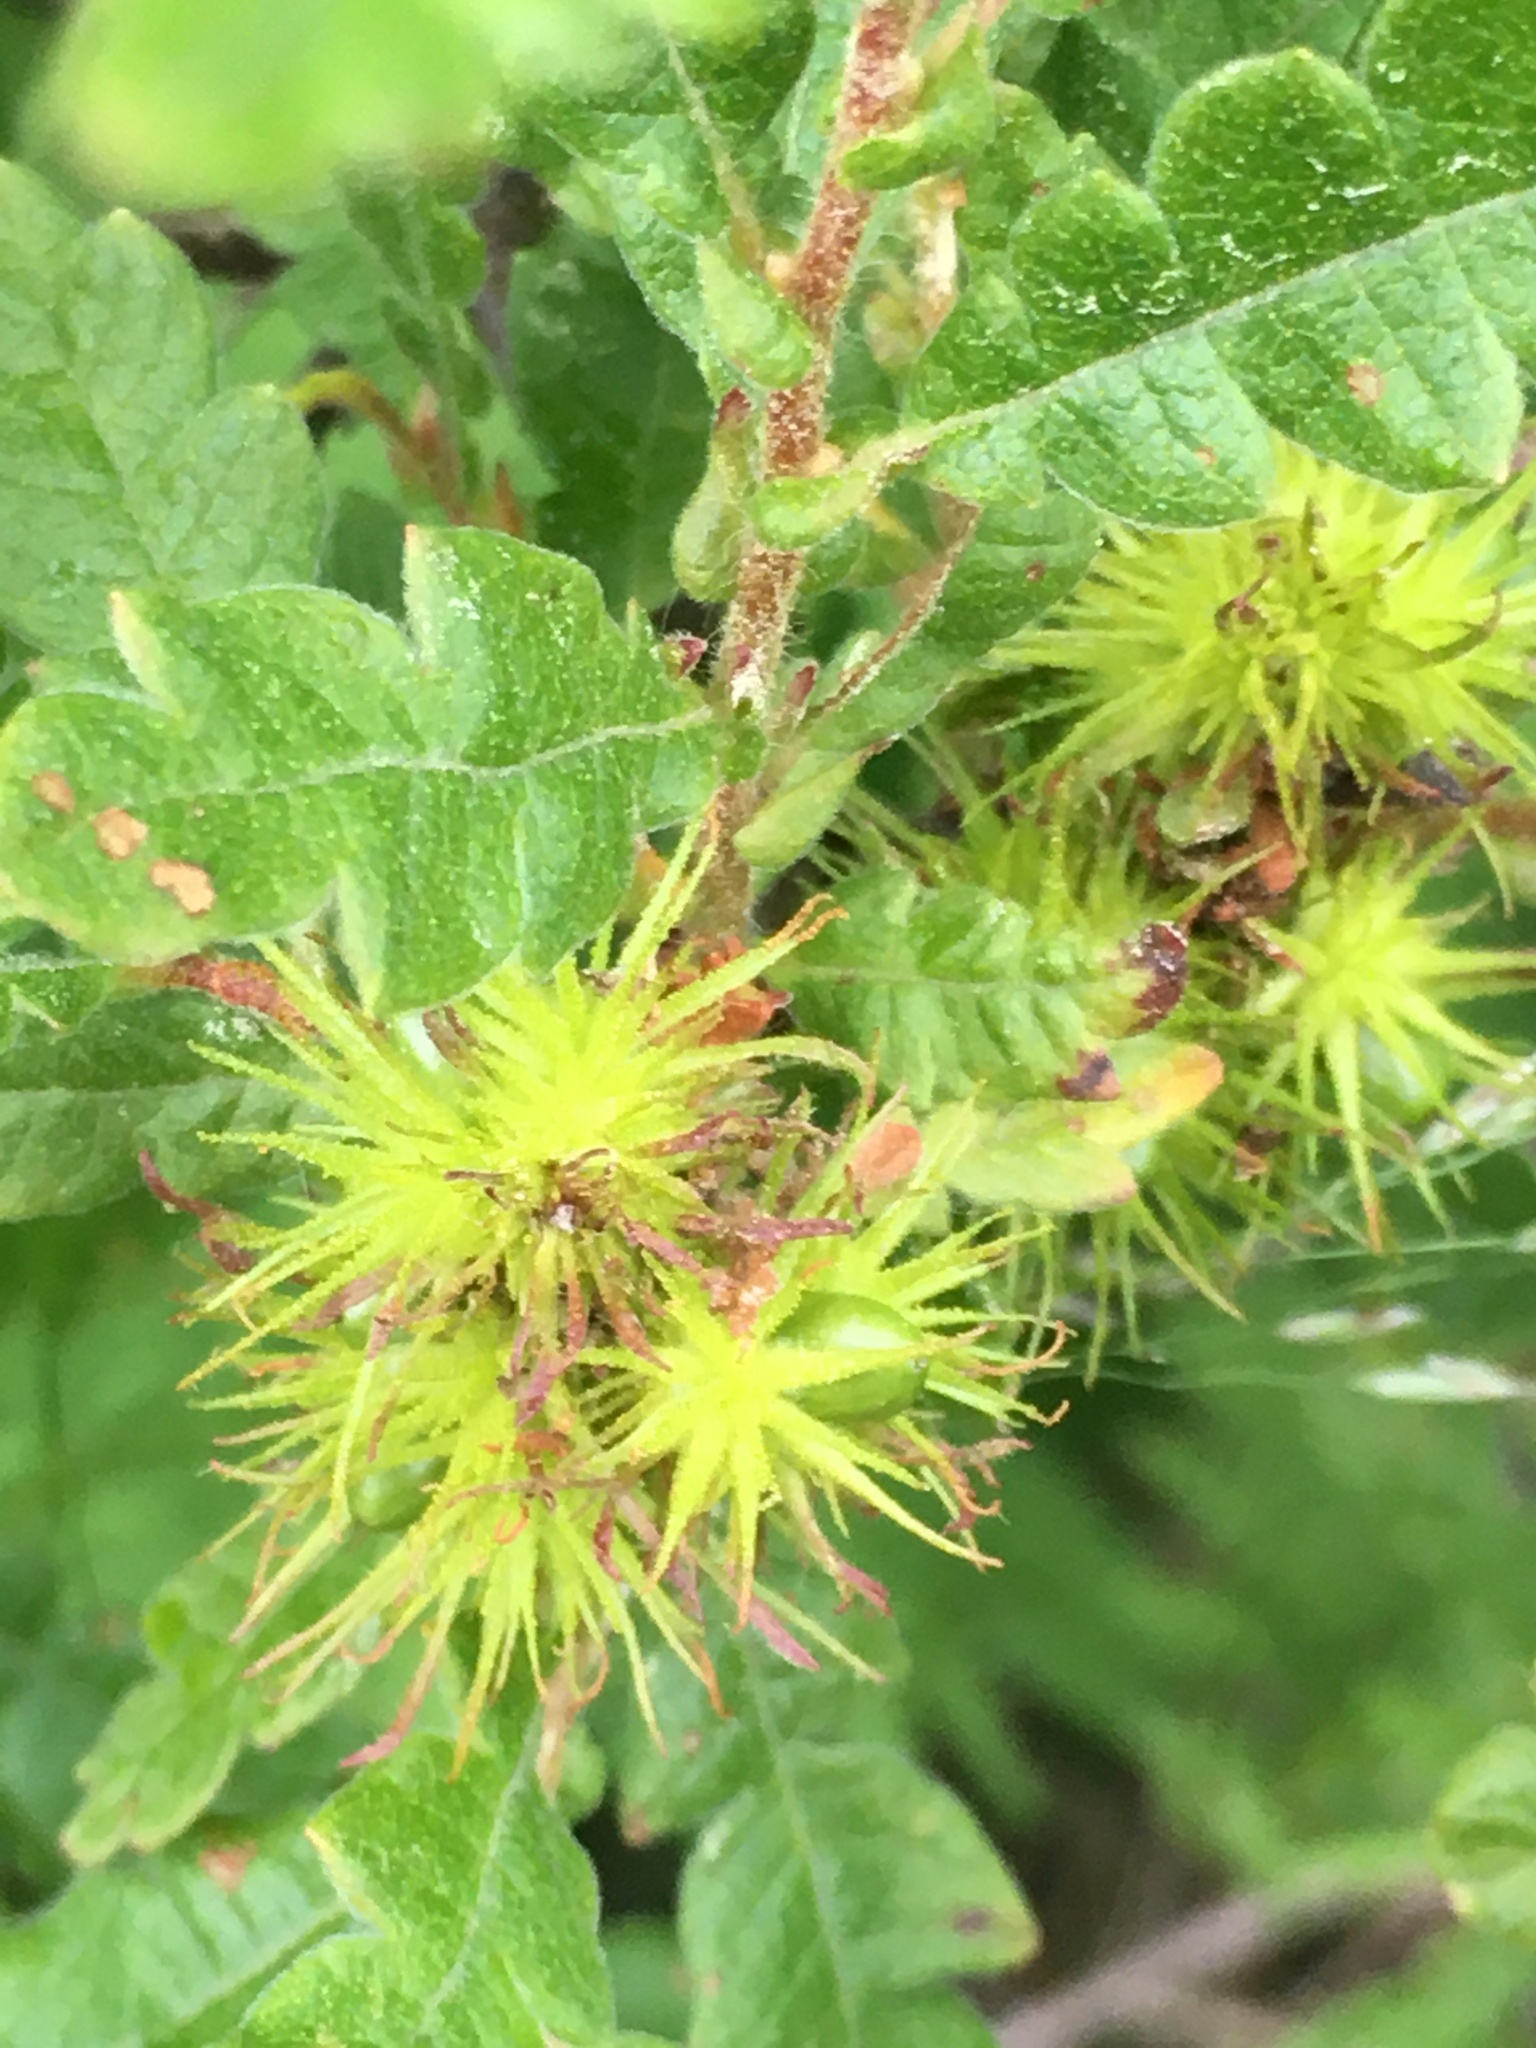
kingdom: Plantae
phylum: Tracheophyta
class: Magnoliopsida
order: Fagales
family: Myricaceae
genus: Comptonia
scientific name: Comptonia peregrina
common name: Sweet-fern
